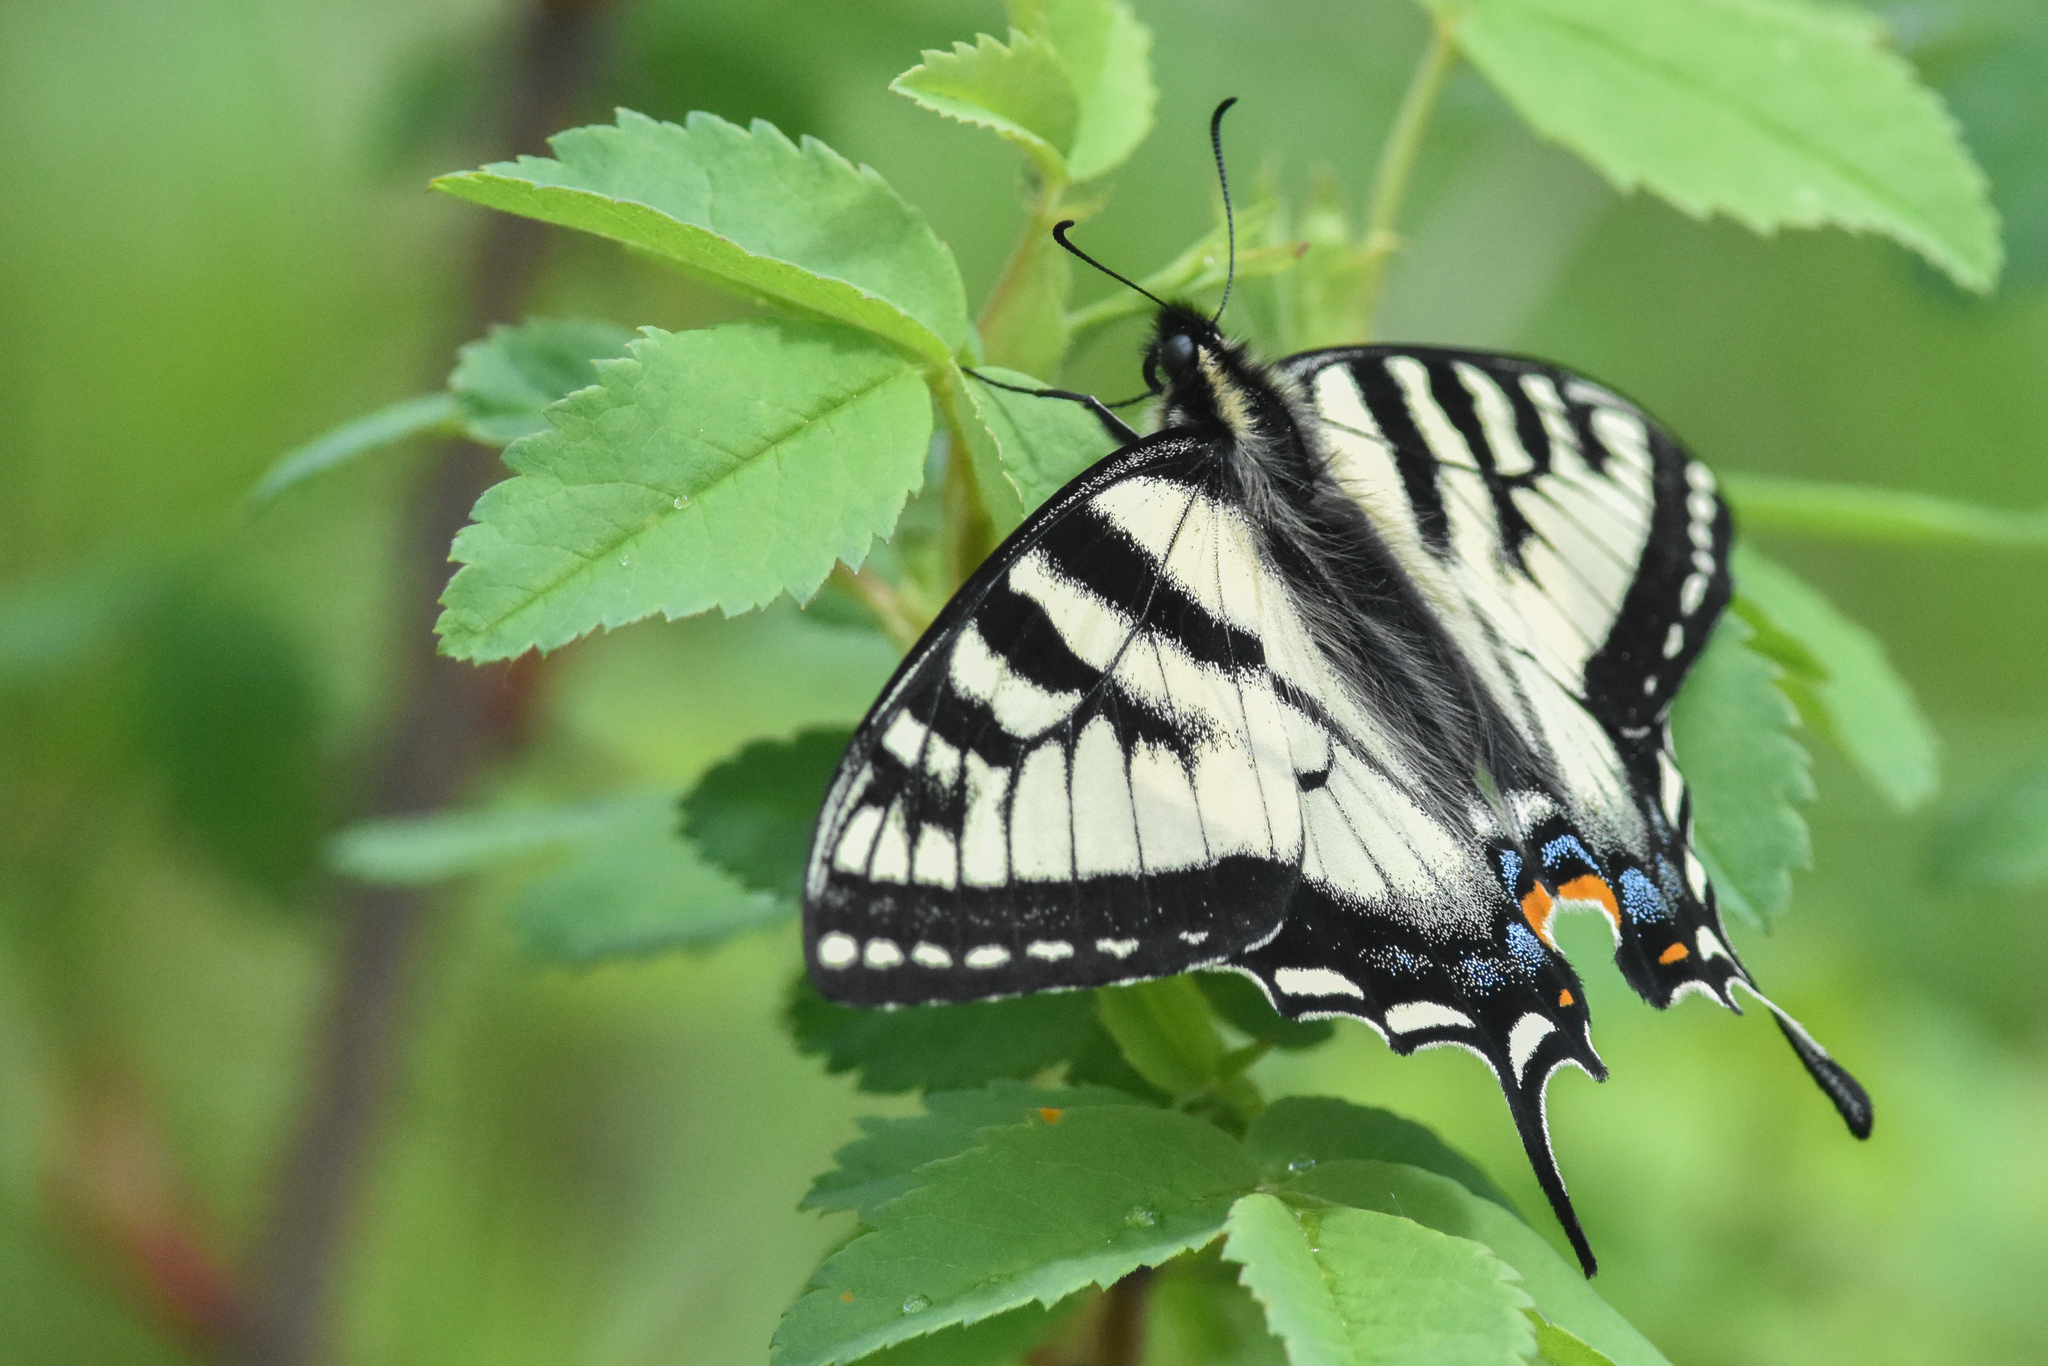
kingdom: Animalia
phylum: Arthropoda
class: Insecta
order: Lepidoptera
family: Papilionidae
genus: Papilio
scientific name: Papilio canadensis
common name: Canadian tiger swallowtail
